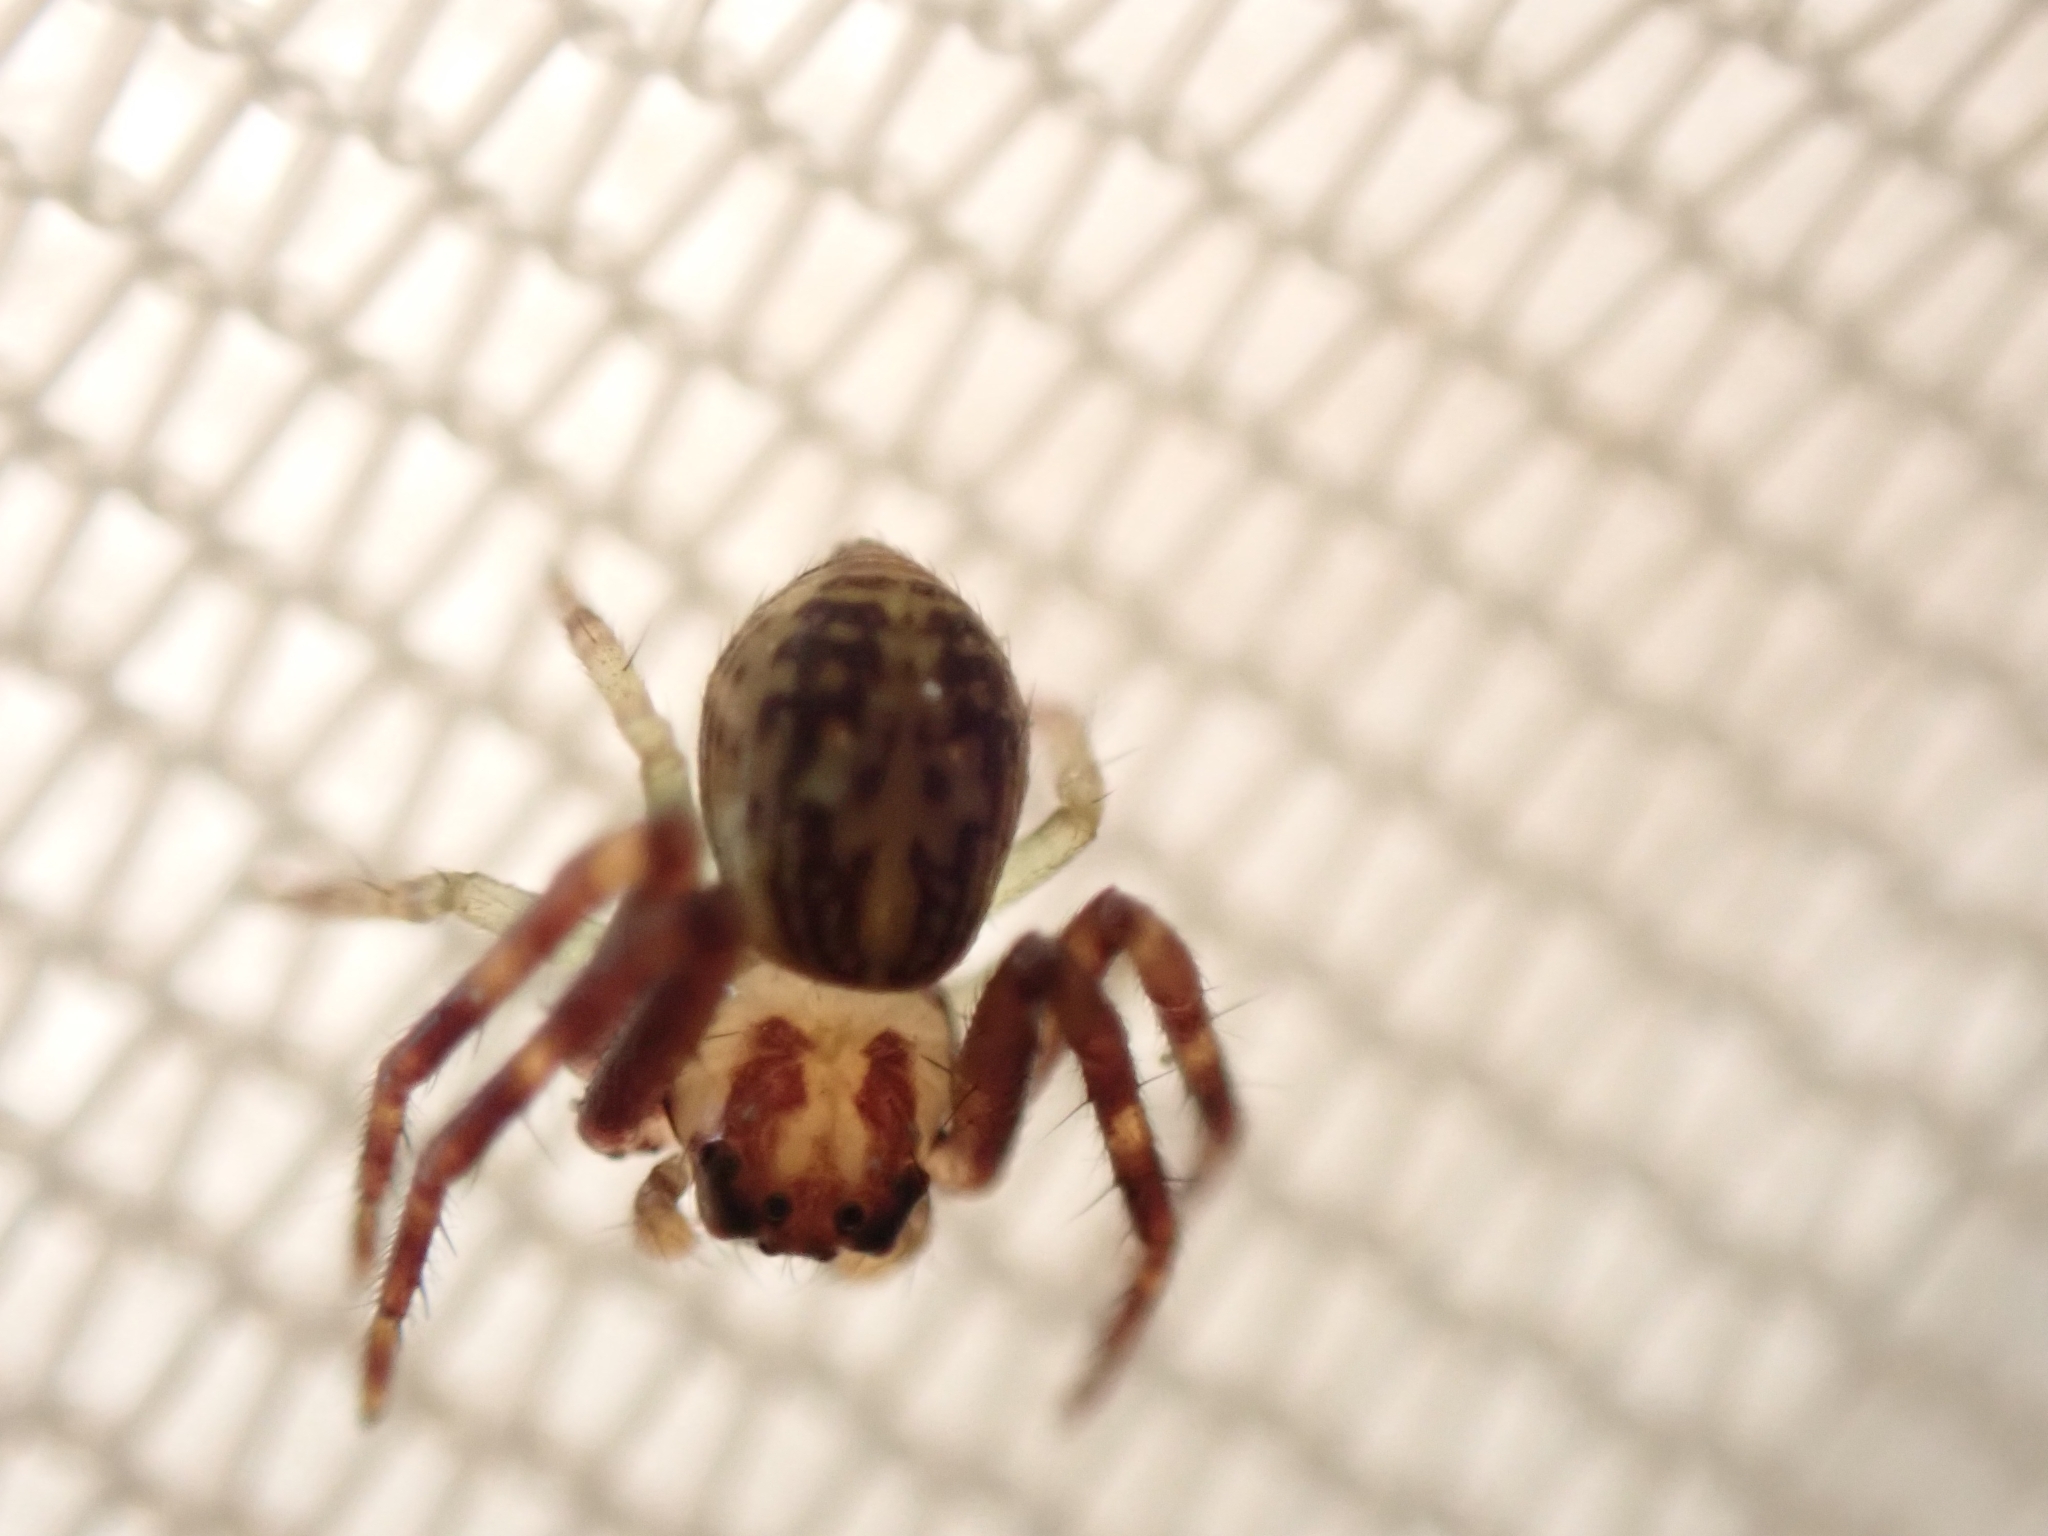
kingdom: Animalia
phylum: Arthropoda
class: Arachnida
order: Araneae
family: Thomisidae
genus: Diaea
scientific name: Diaea ambara
